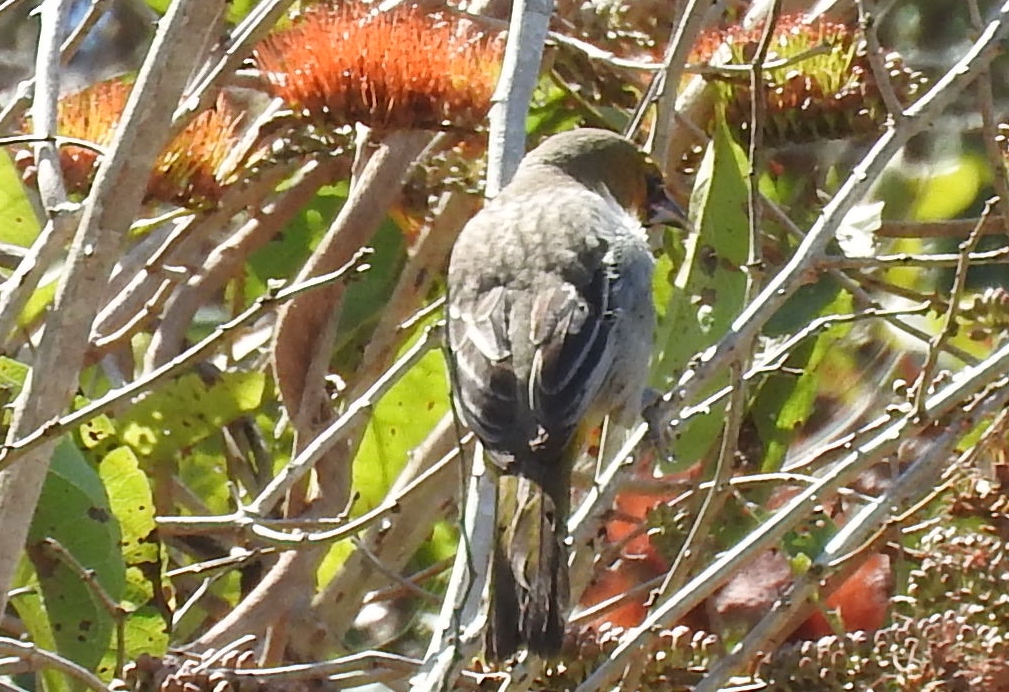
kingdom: Animalia
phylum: Chordata
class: Aves
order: Passeriformes
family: Icteridae
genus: Icterus
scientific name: Icterus pustulatus
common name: Streak-backed oriole
